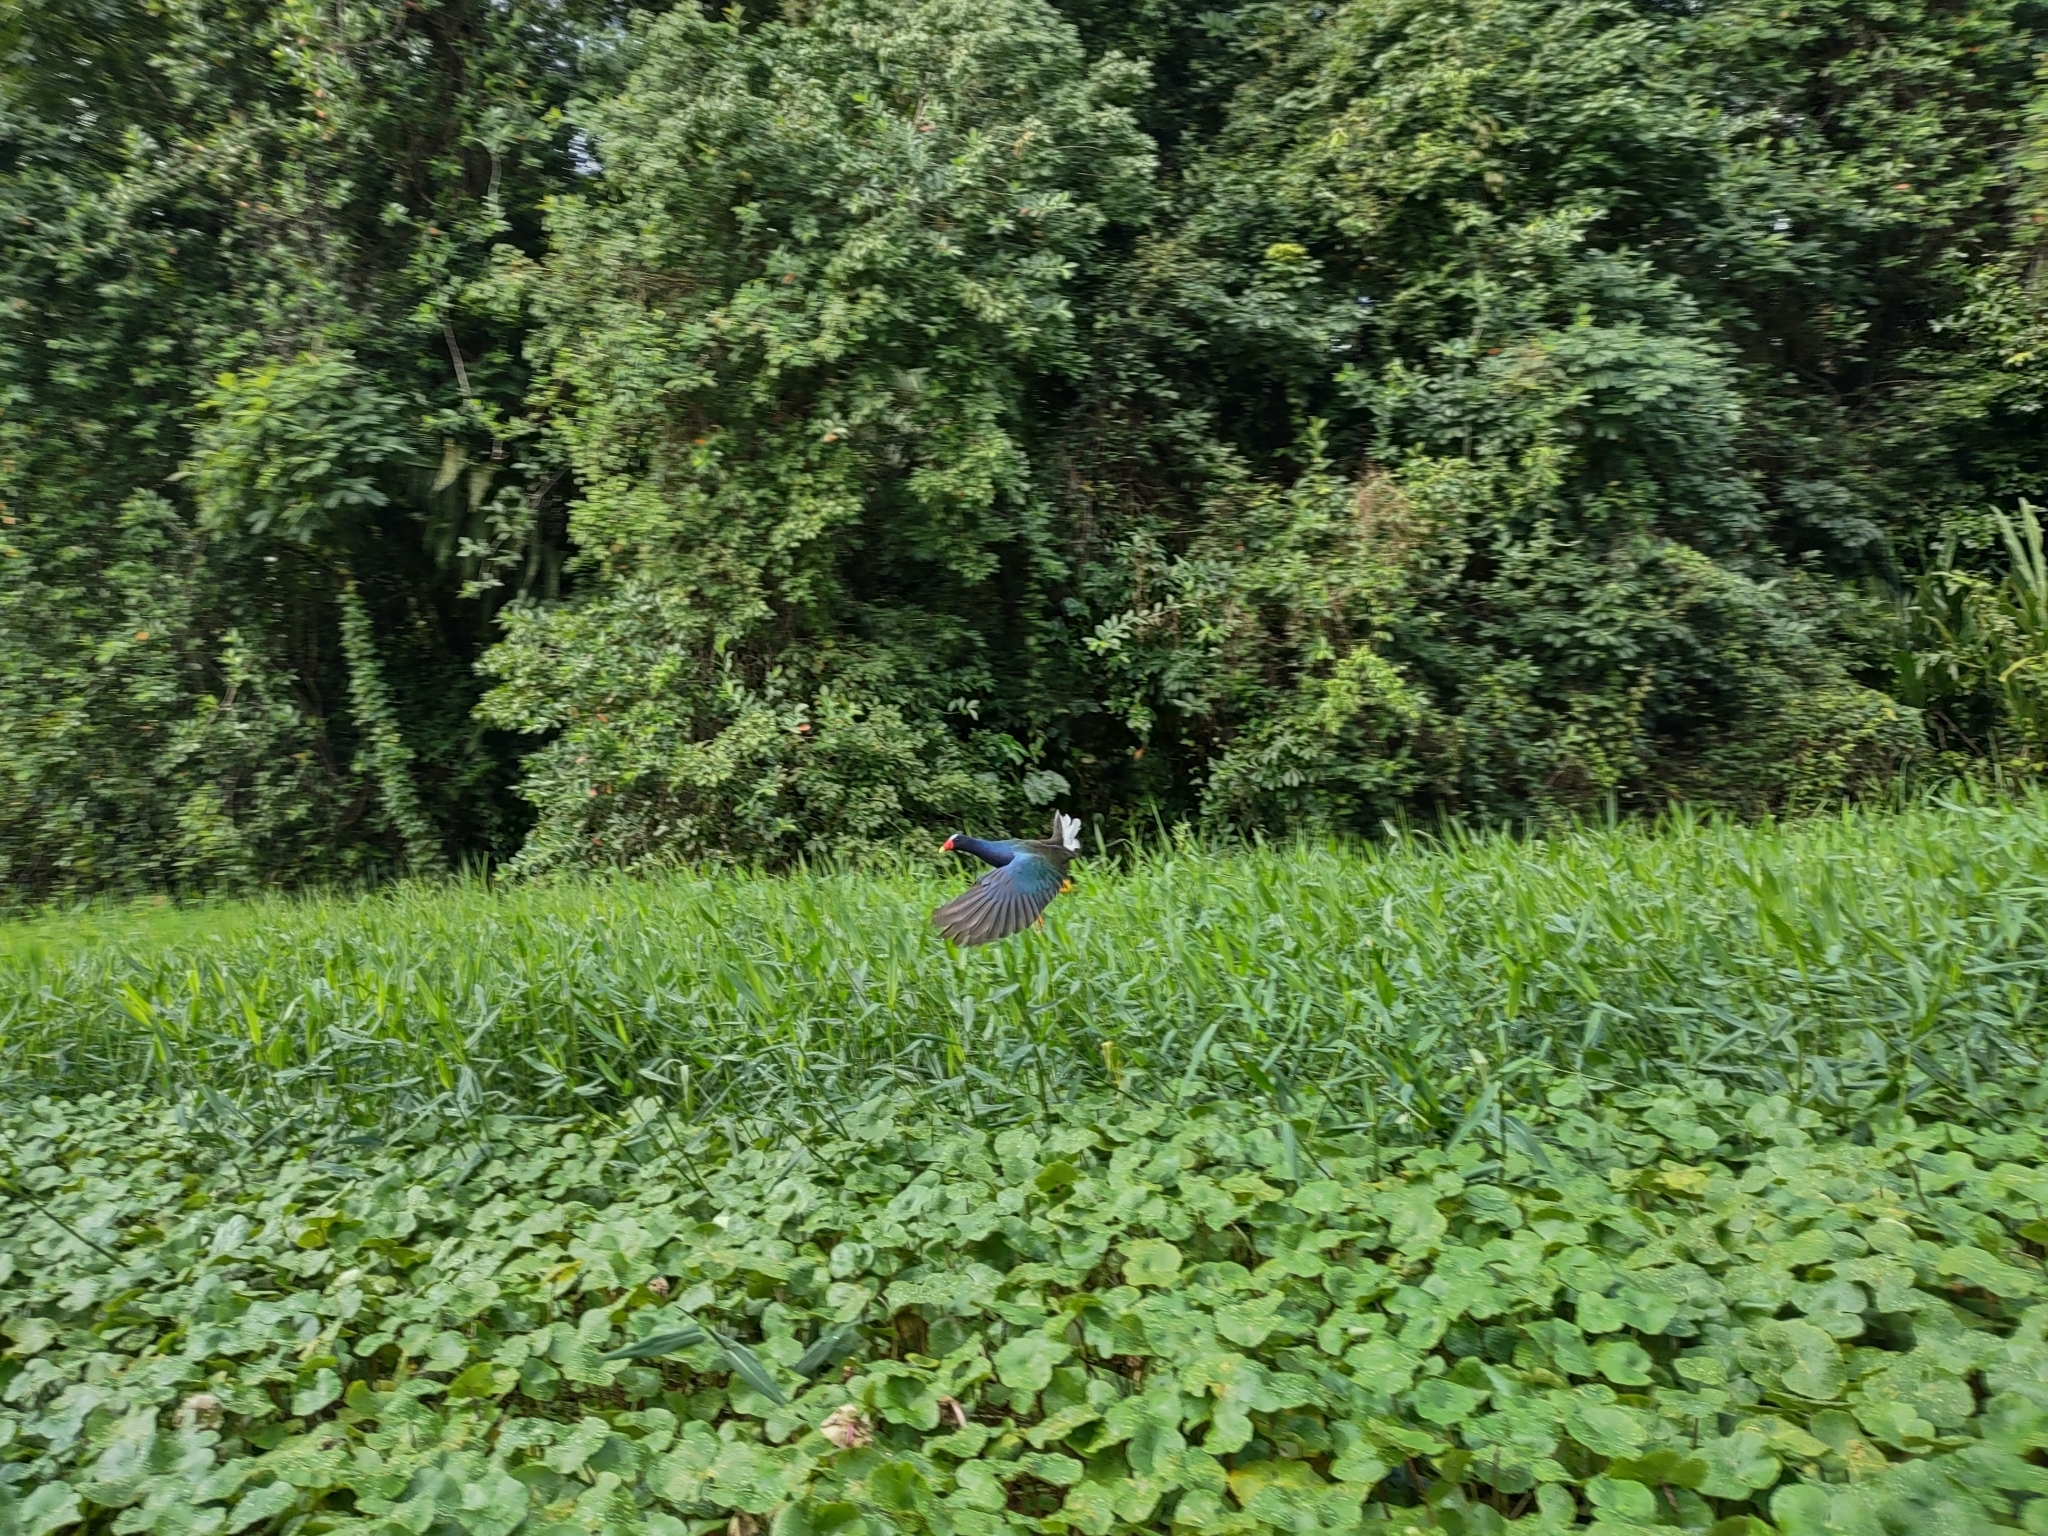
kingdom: Animalia
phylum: Chordata
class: Aves
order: Gruiformes
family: Rallidae
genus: Porphyrio
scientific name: Porphyrio martinica
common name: Purple gallinule
